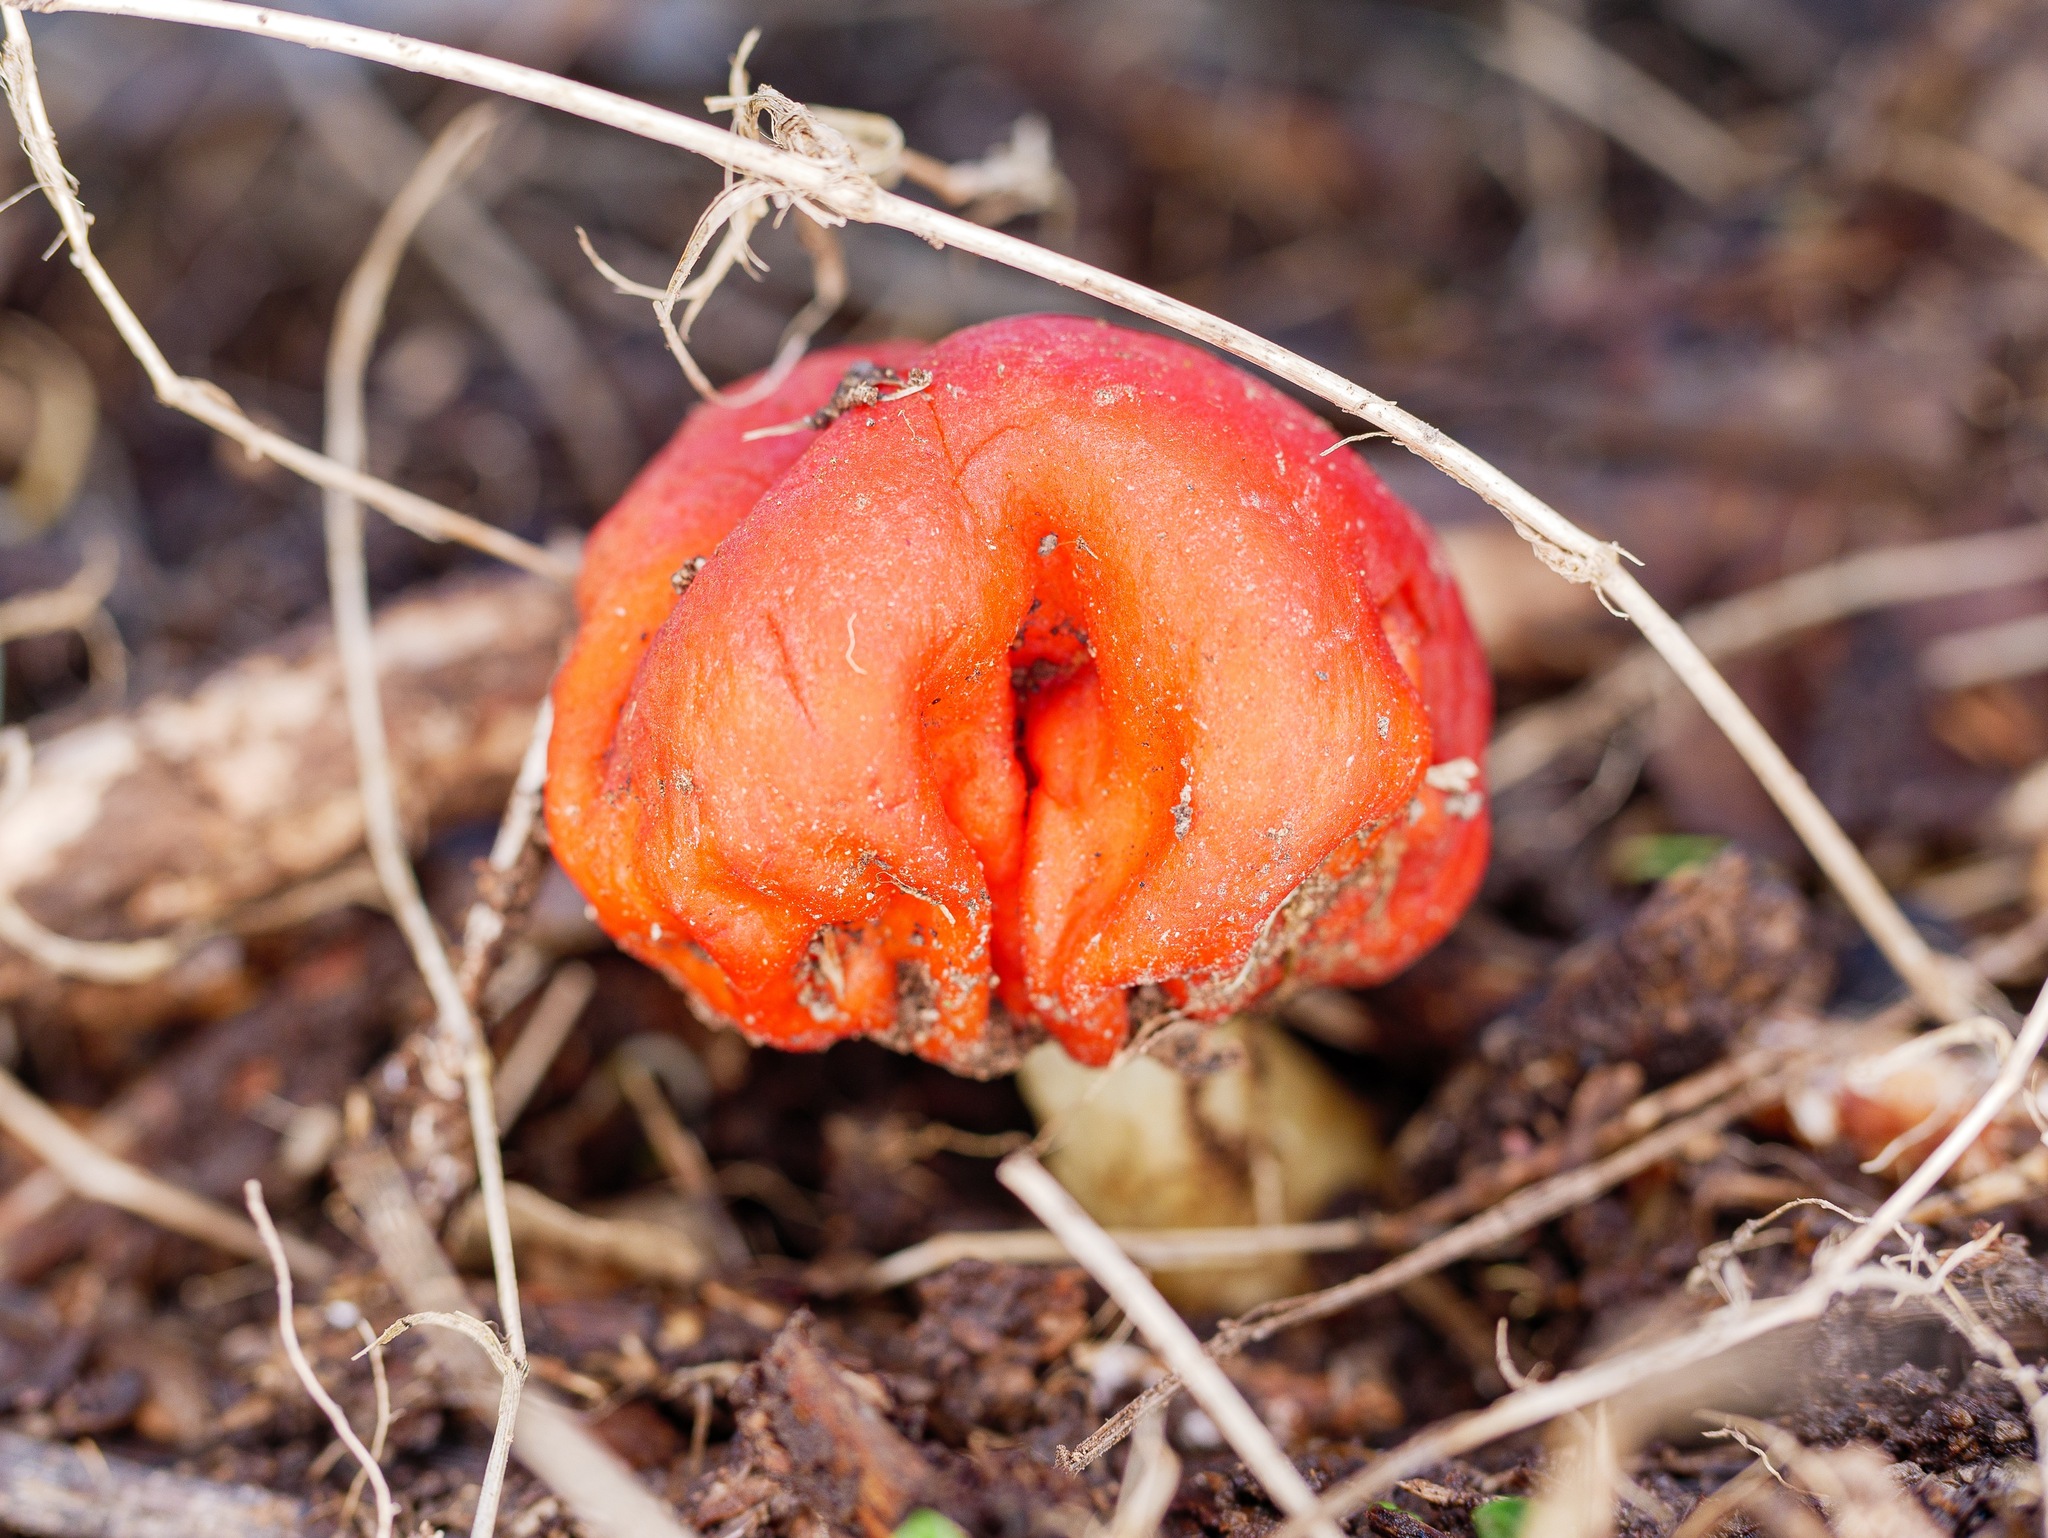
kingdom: Fungi
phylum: Basidiomycota
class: Agaricomycetes
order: Agaricales
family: Strophariaceae
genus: Leratiomyces
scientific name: Leratiomyces erythrocephalus
